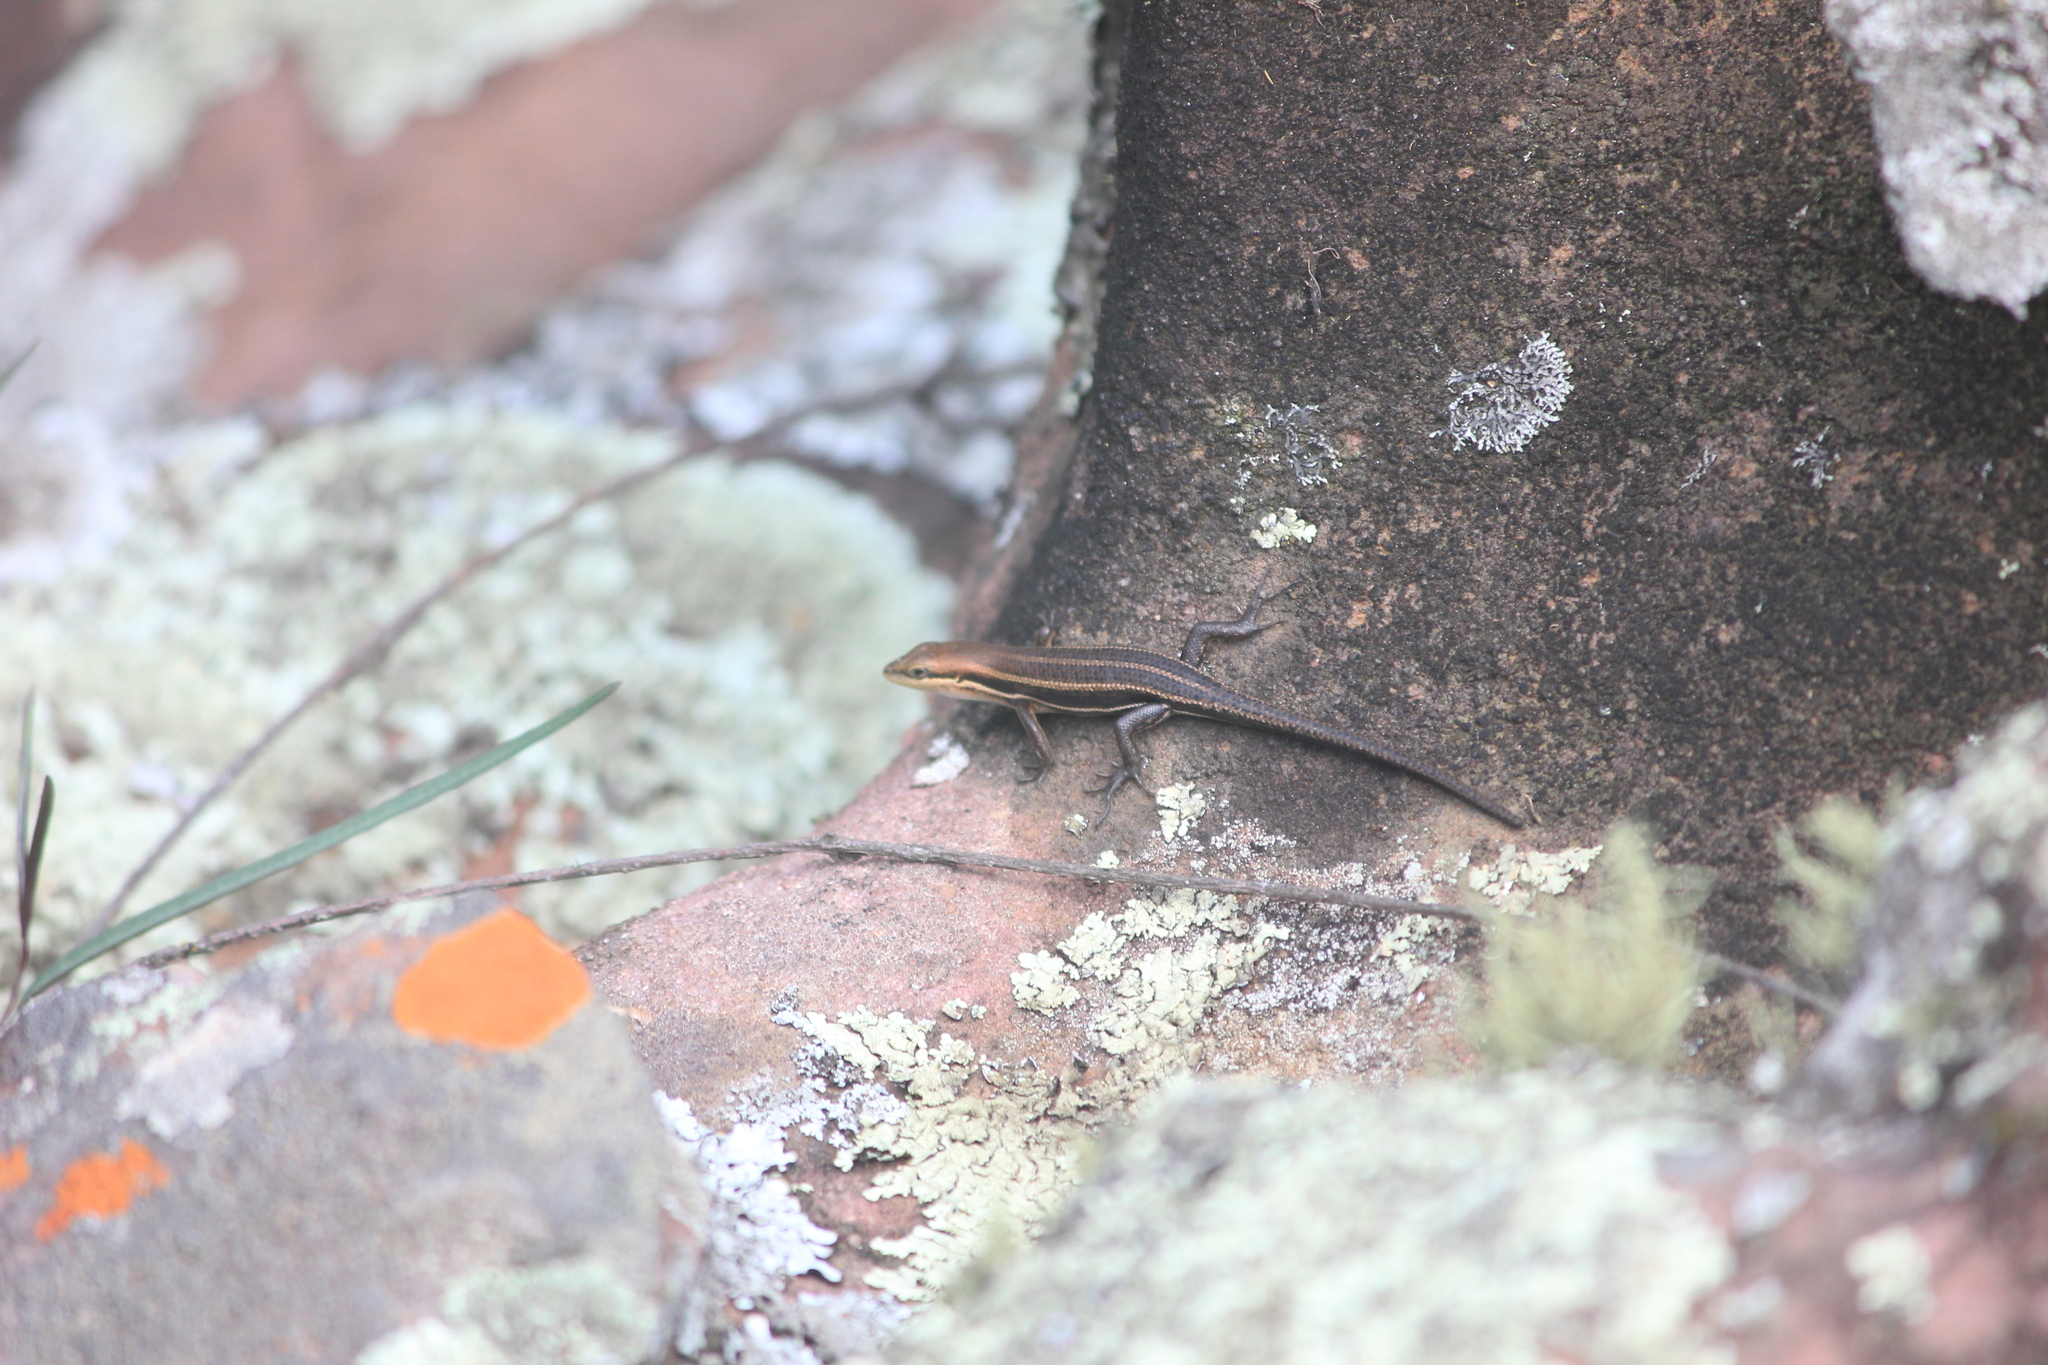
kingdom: Animalia
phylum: Chordata
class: Squamata
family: Scincidae
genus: Trachylepis
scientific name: Trachylepis varia
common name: Eastern variable skink
